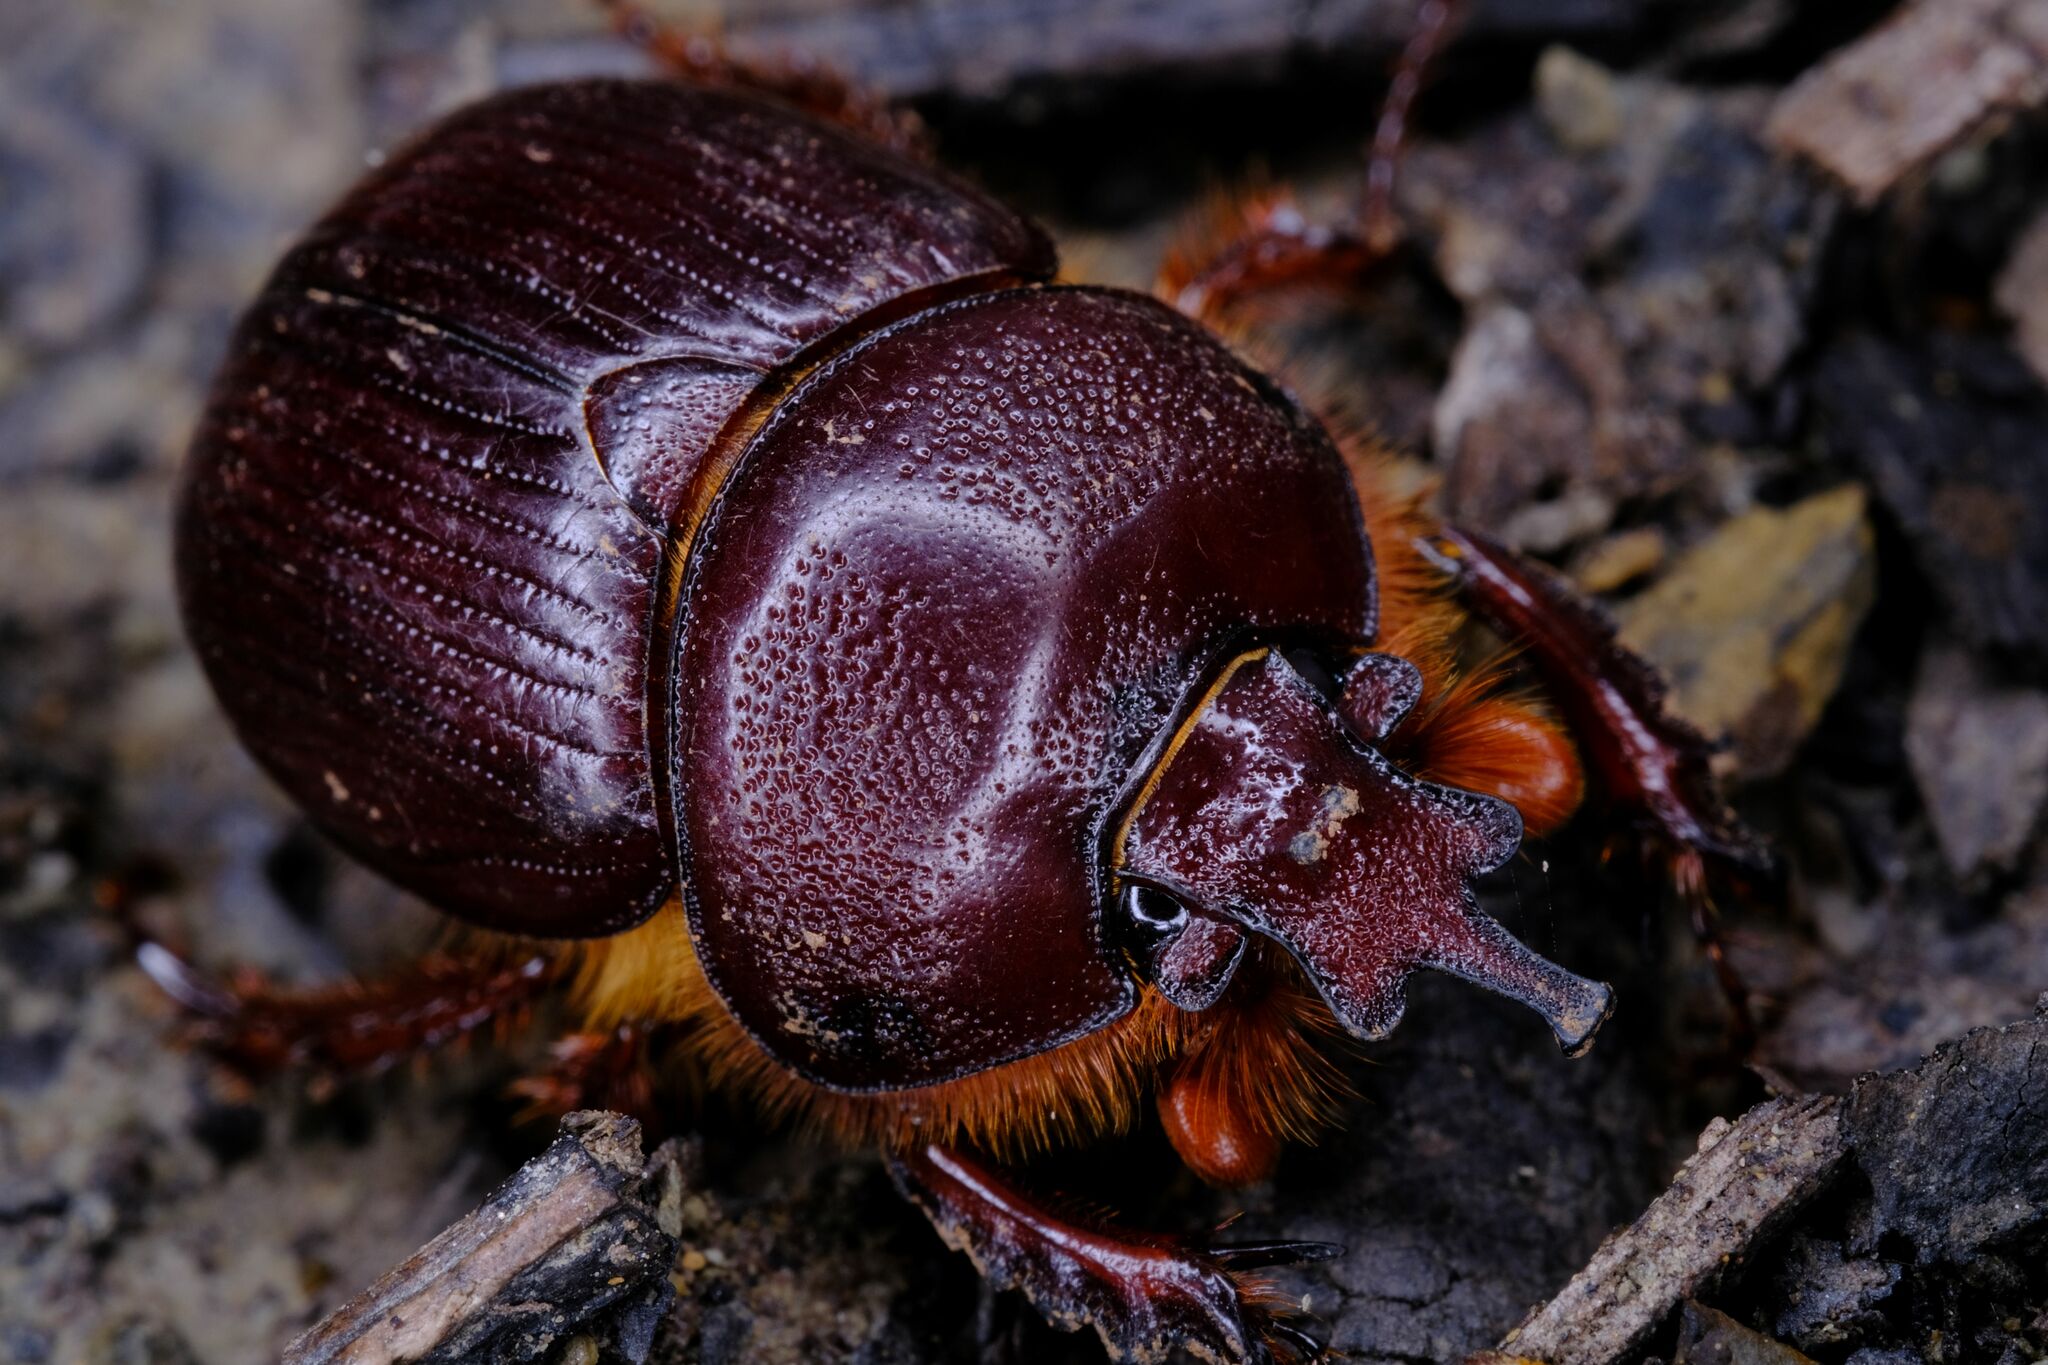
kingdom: Animalia
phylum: Arthropoda
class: Insecta
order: Coleoptera
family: Geotrupidae
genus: Elephastomus
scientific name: Elephastomus proboscideus
